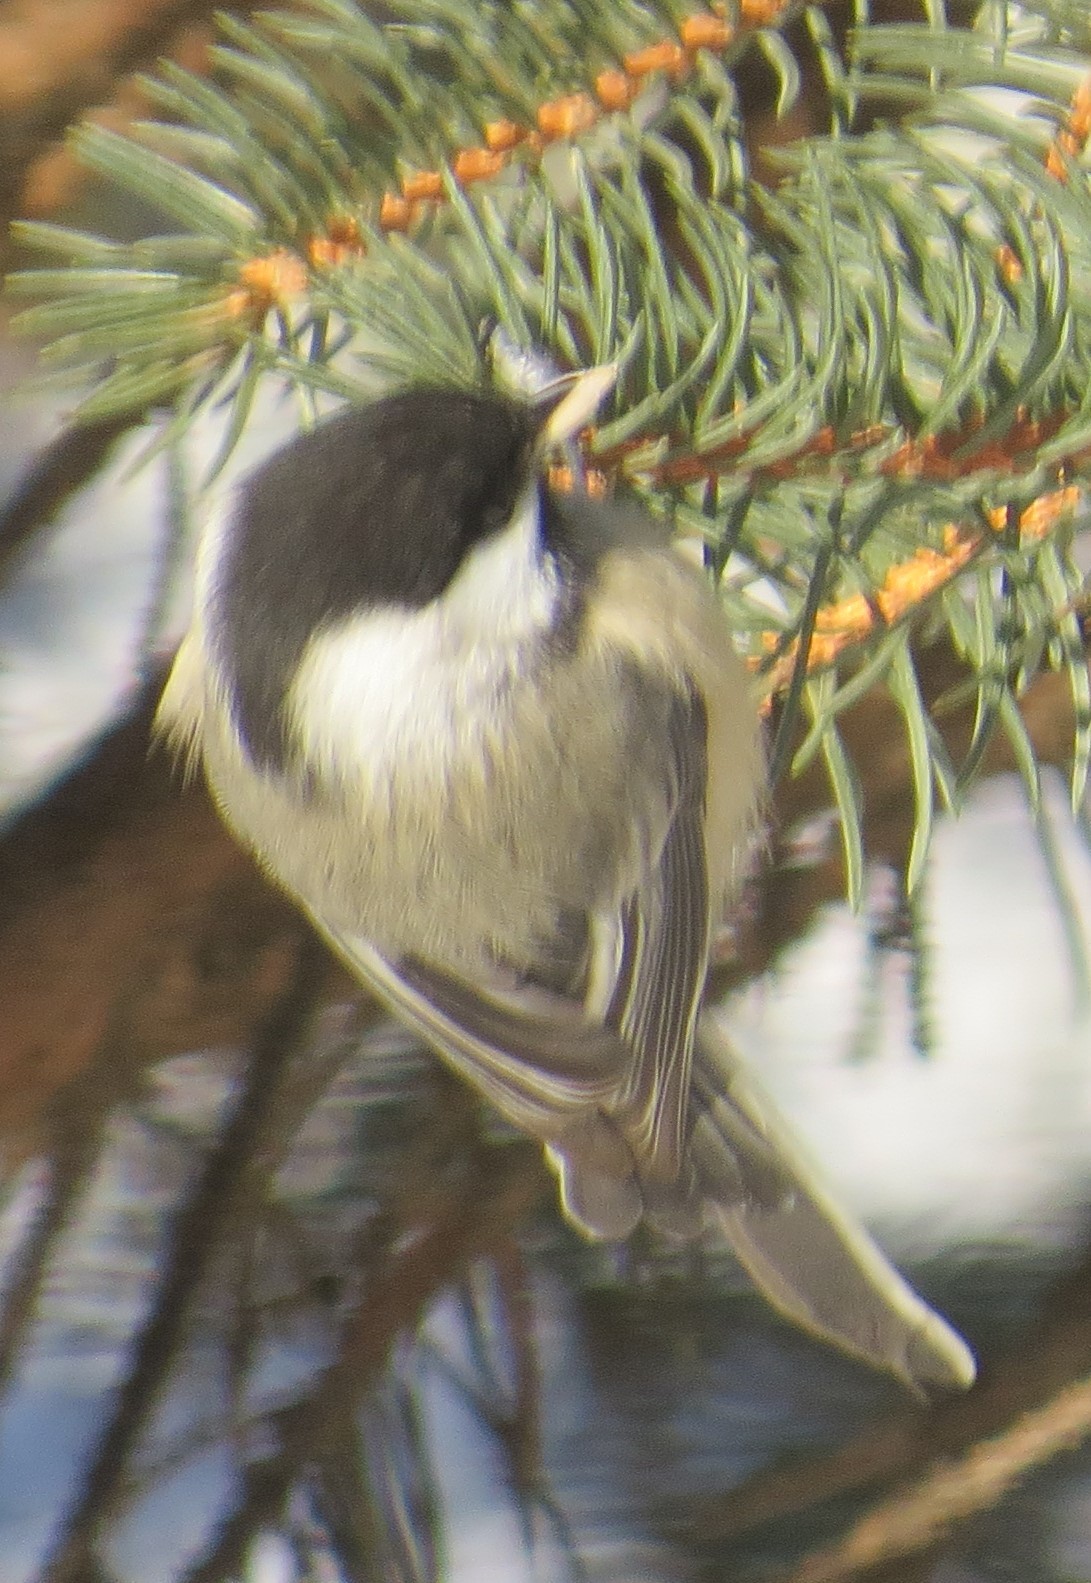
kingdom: Animalia
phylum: Chordata
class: Aves
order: Passeriformes
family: Paridae
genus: Poecile
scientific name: Poecile atricapillus
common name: Black-capped chickadee
